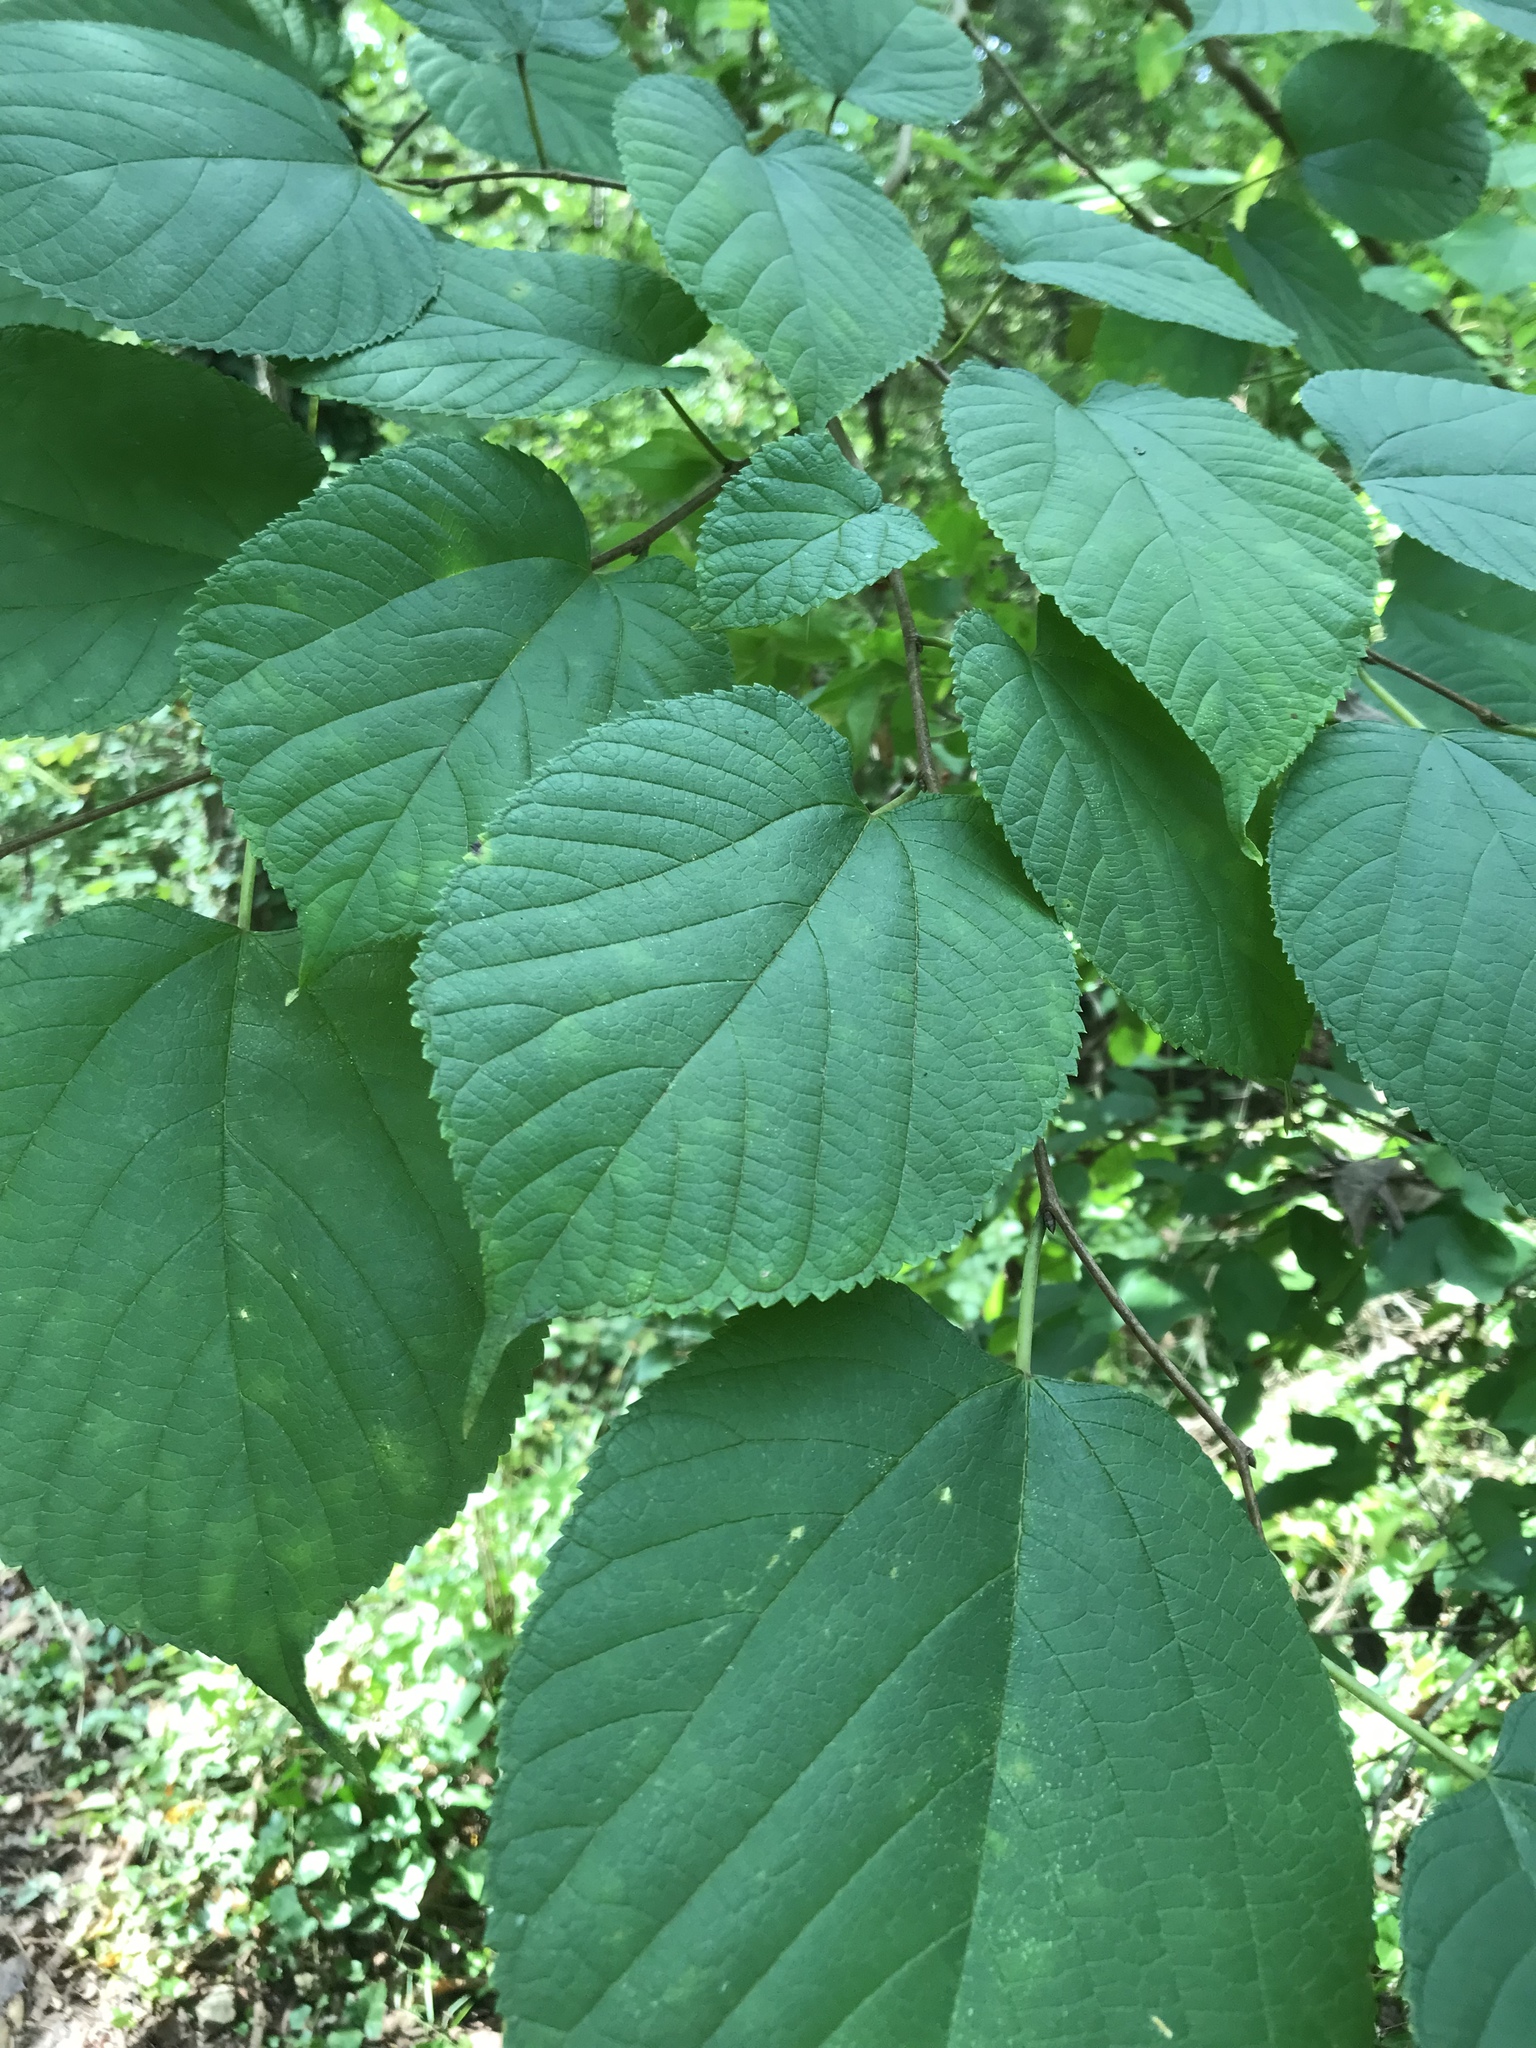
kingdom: Plantae
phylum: Tracheophyta
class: Magnoliopsida
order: Malvales
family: Malvaceae
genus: Tilia
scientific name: Tilia americana
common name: Basswood
